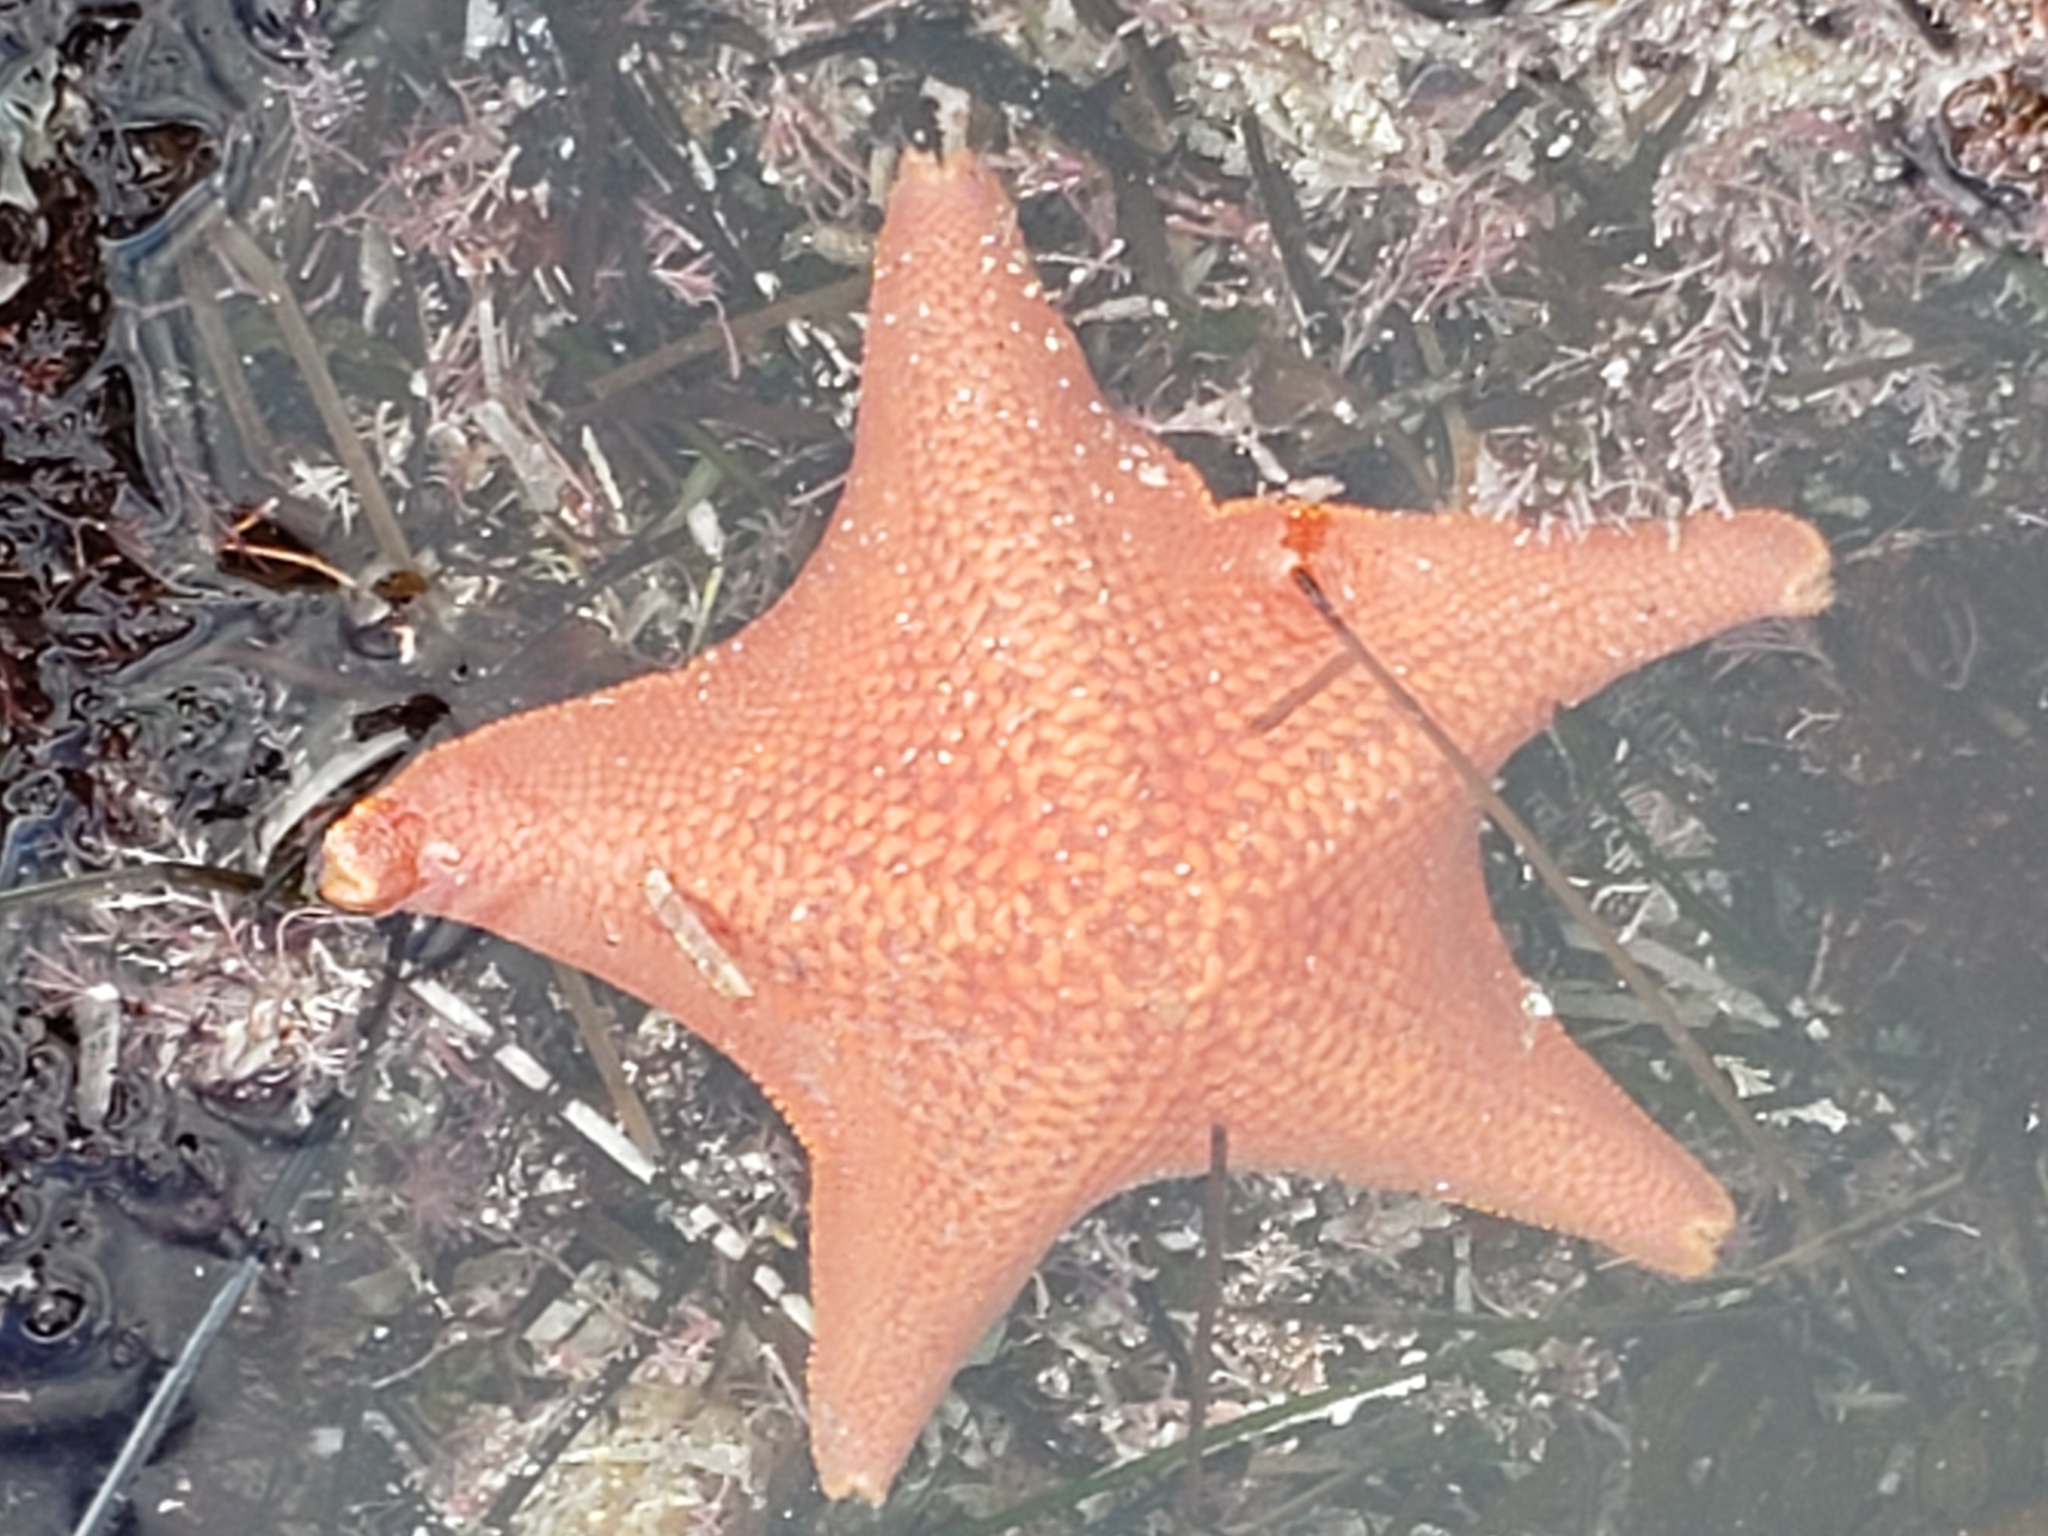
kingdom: Animalia
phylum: Echinodermata
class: Asteroidea
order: Valvatida
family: Asterinidae
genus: Patiria
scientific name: Patiria miniata
